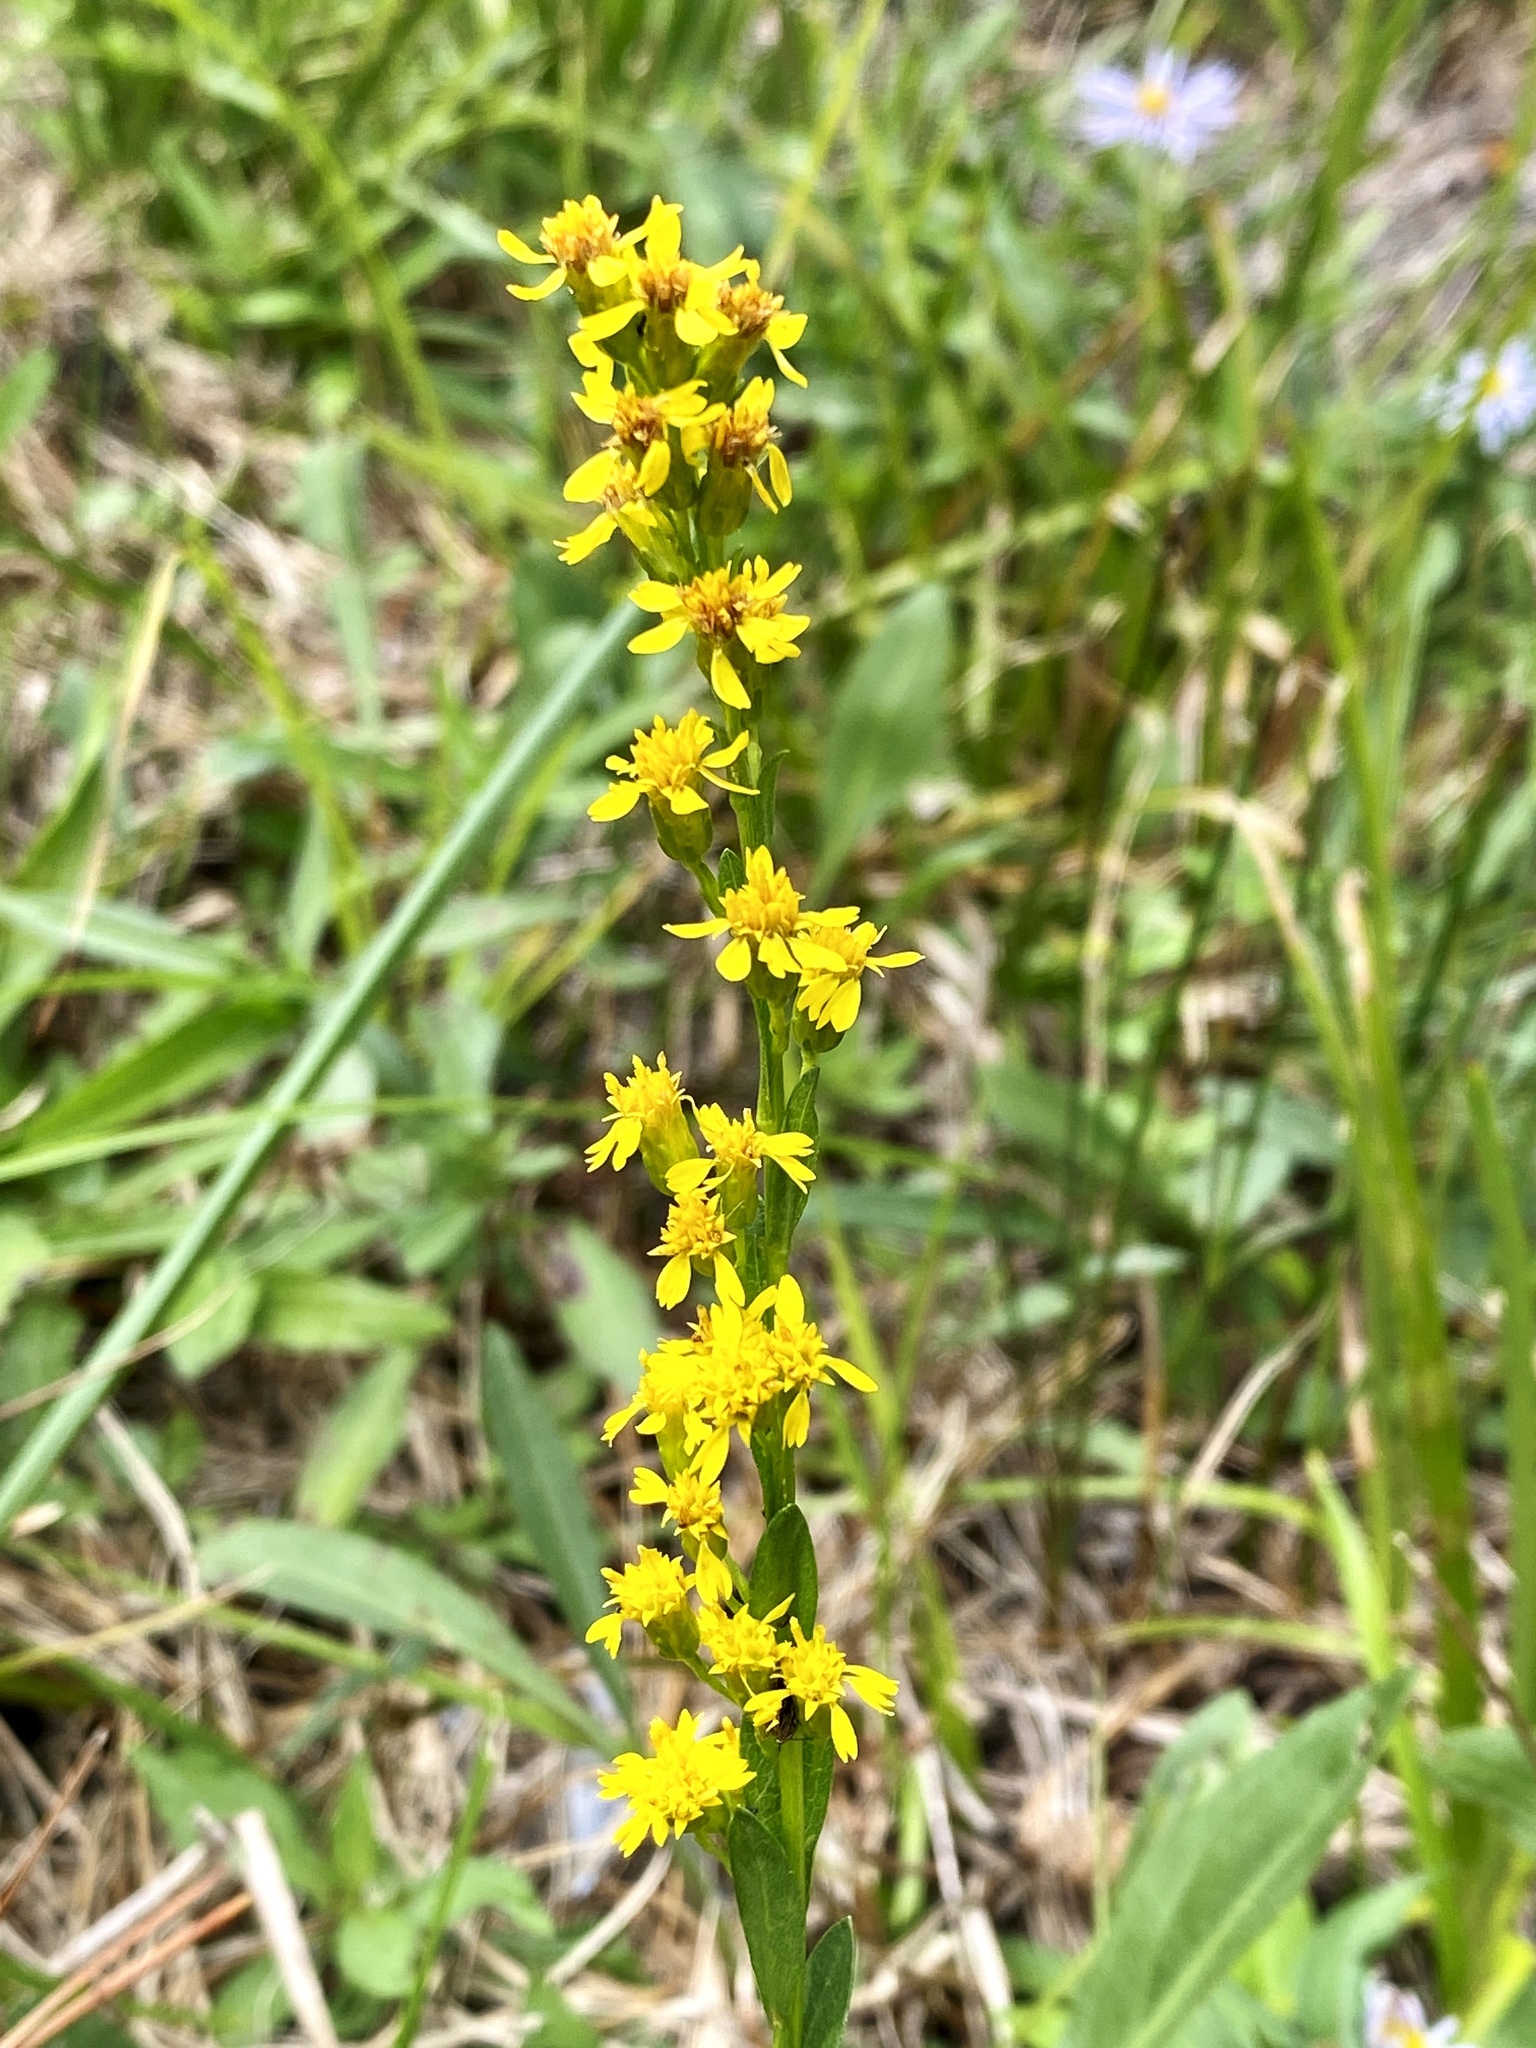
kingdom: Plantae
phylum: Tracheophyta
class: Magnoliopsida
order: Asterales
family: Asteraceae
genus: Solidago
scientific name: Solidago stricta
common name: Pine barren bog goldenrod
